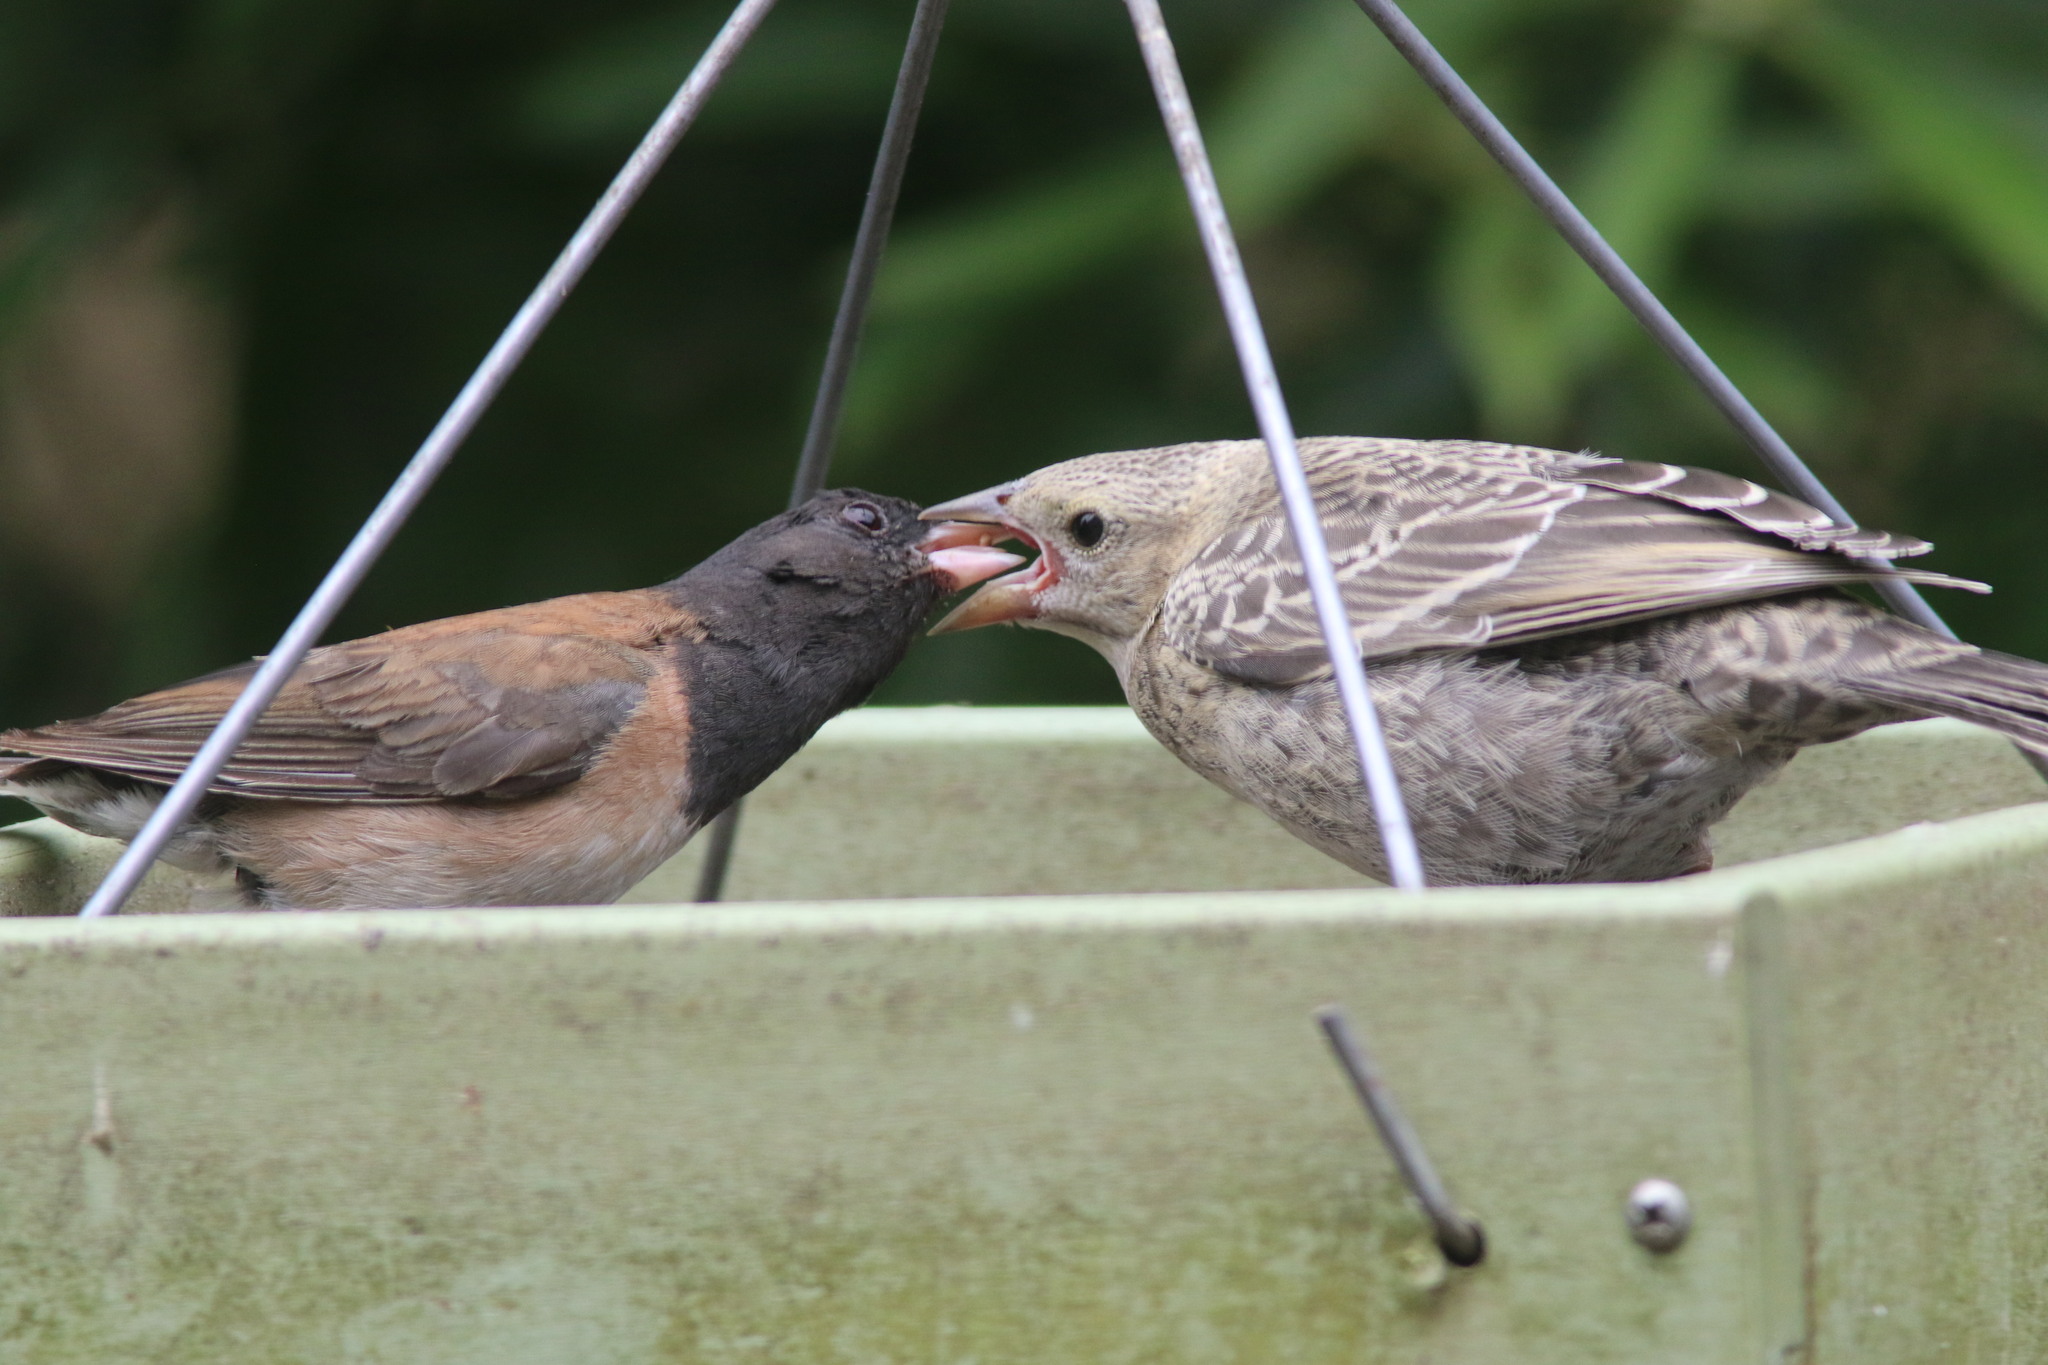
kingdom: Animalia
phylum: Chordata
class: Aves
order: Passeriformes
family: Icteridae
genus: Molothrus
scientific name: Molothrus ater
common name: Brown-headed cowbird
